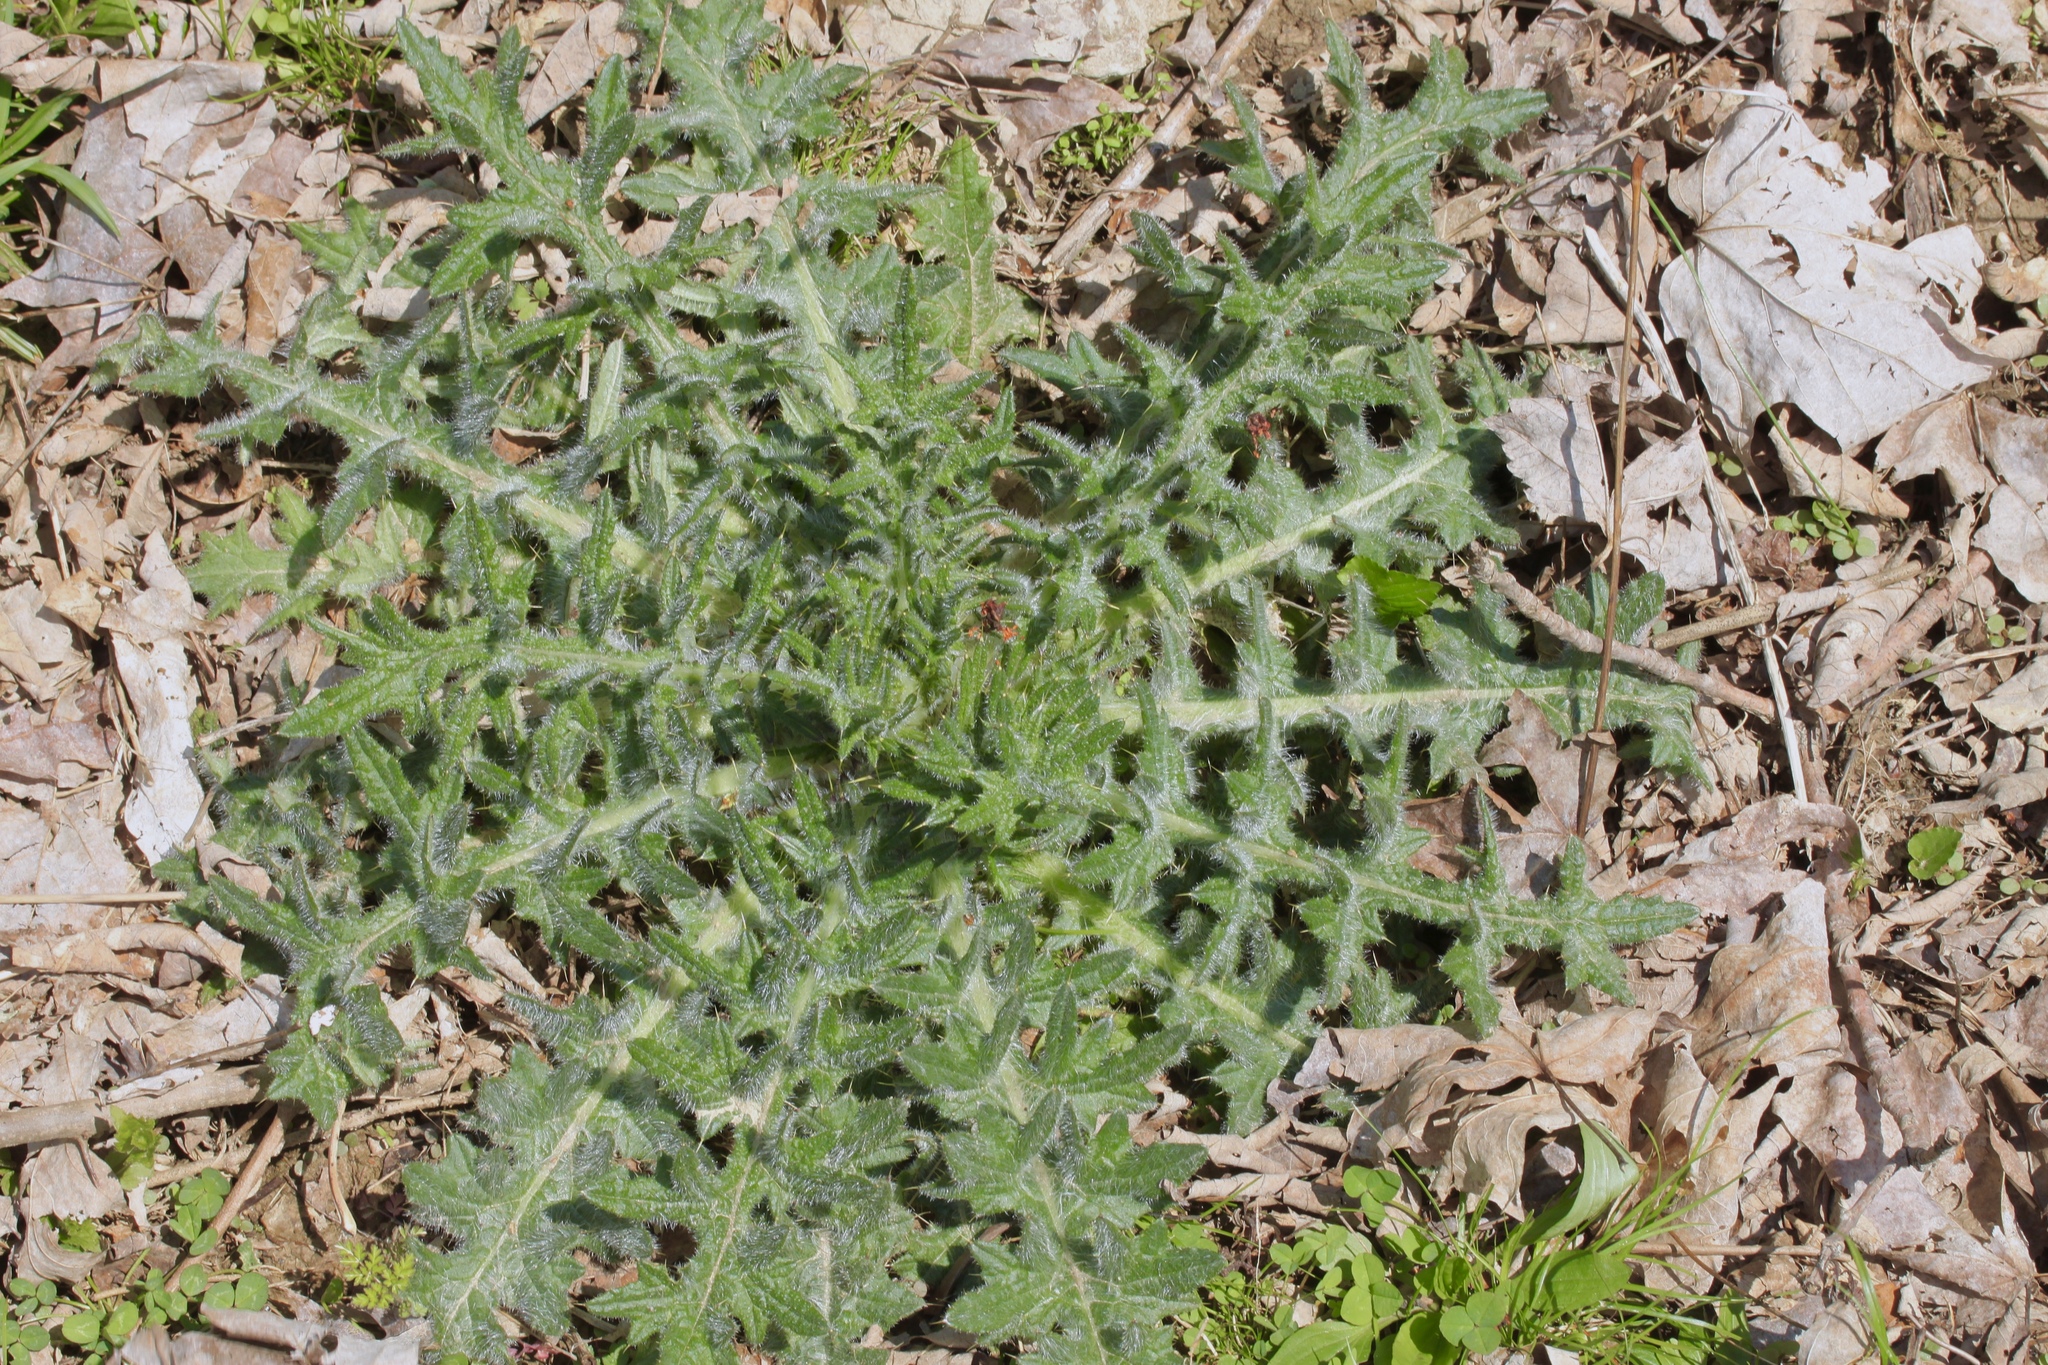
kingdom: Plantae
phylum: Tracheophyta
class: Magnoliopsida
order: Asterales
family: Asteraceae
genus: Cirsium
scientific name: Cirsium vulgare
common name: Bull thistle
